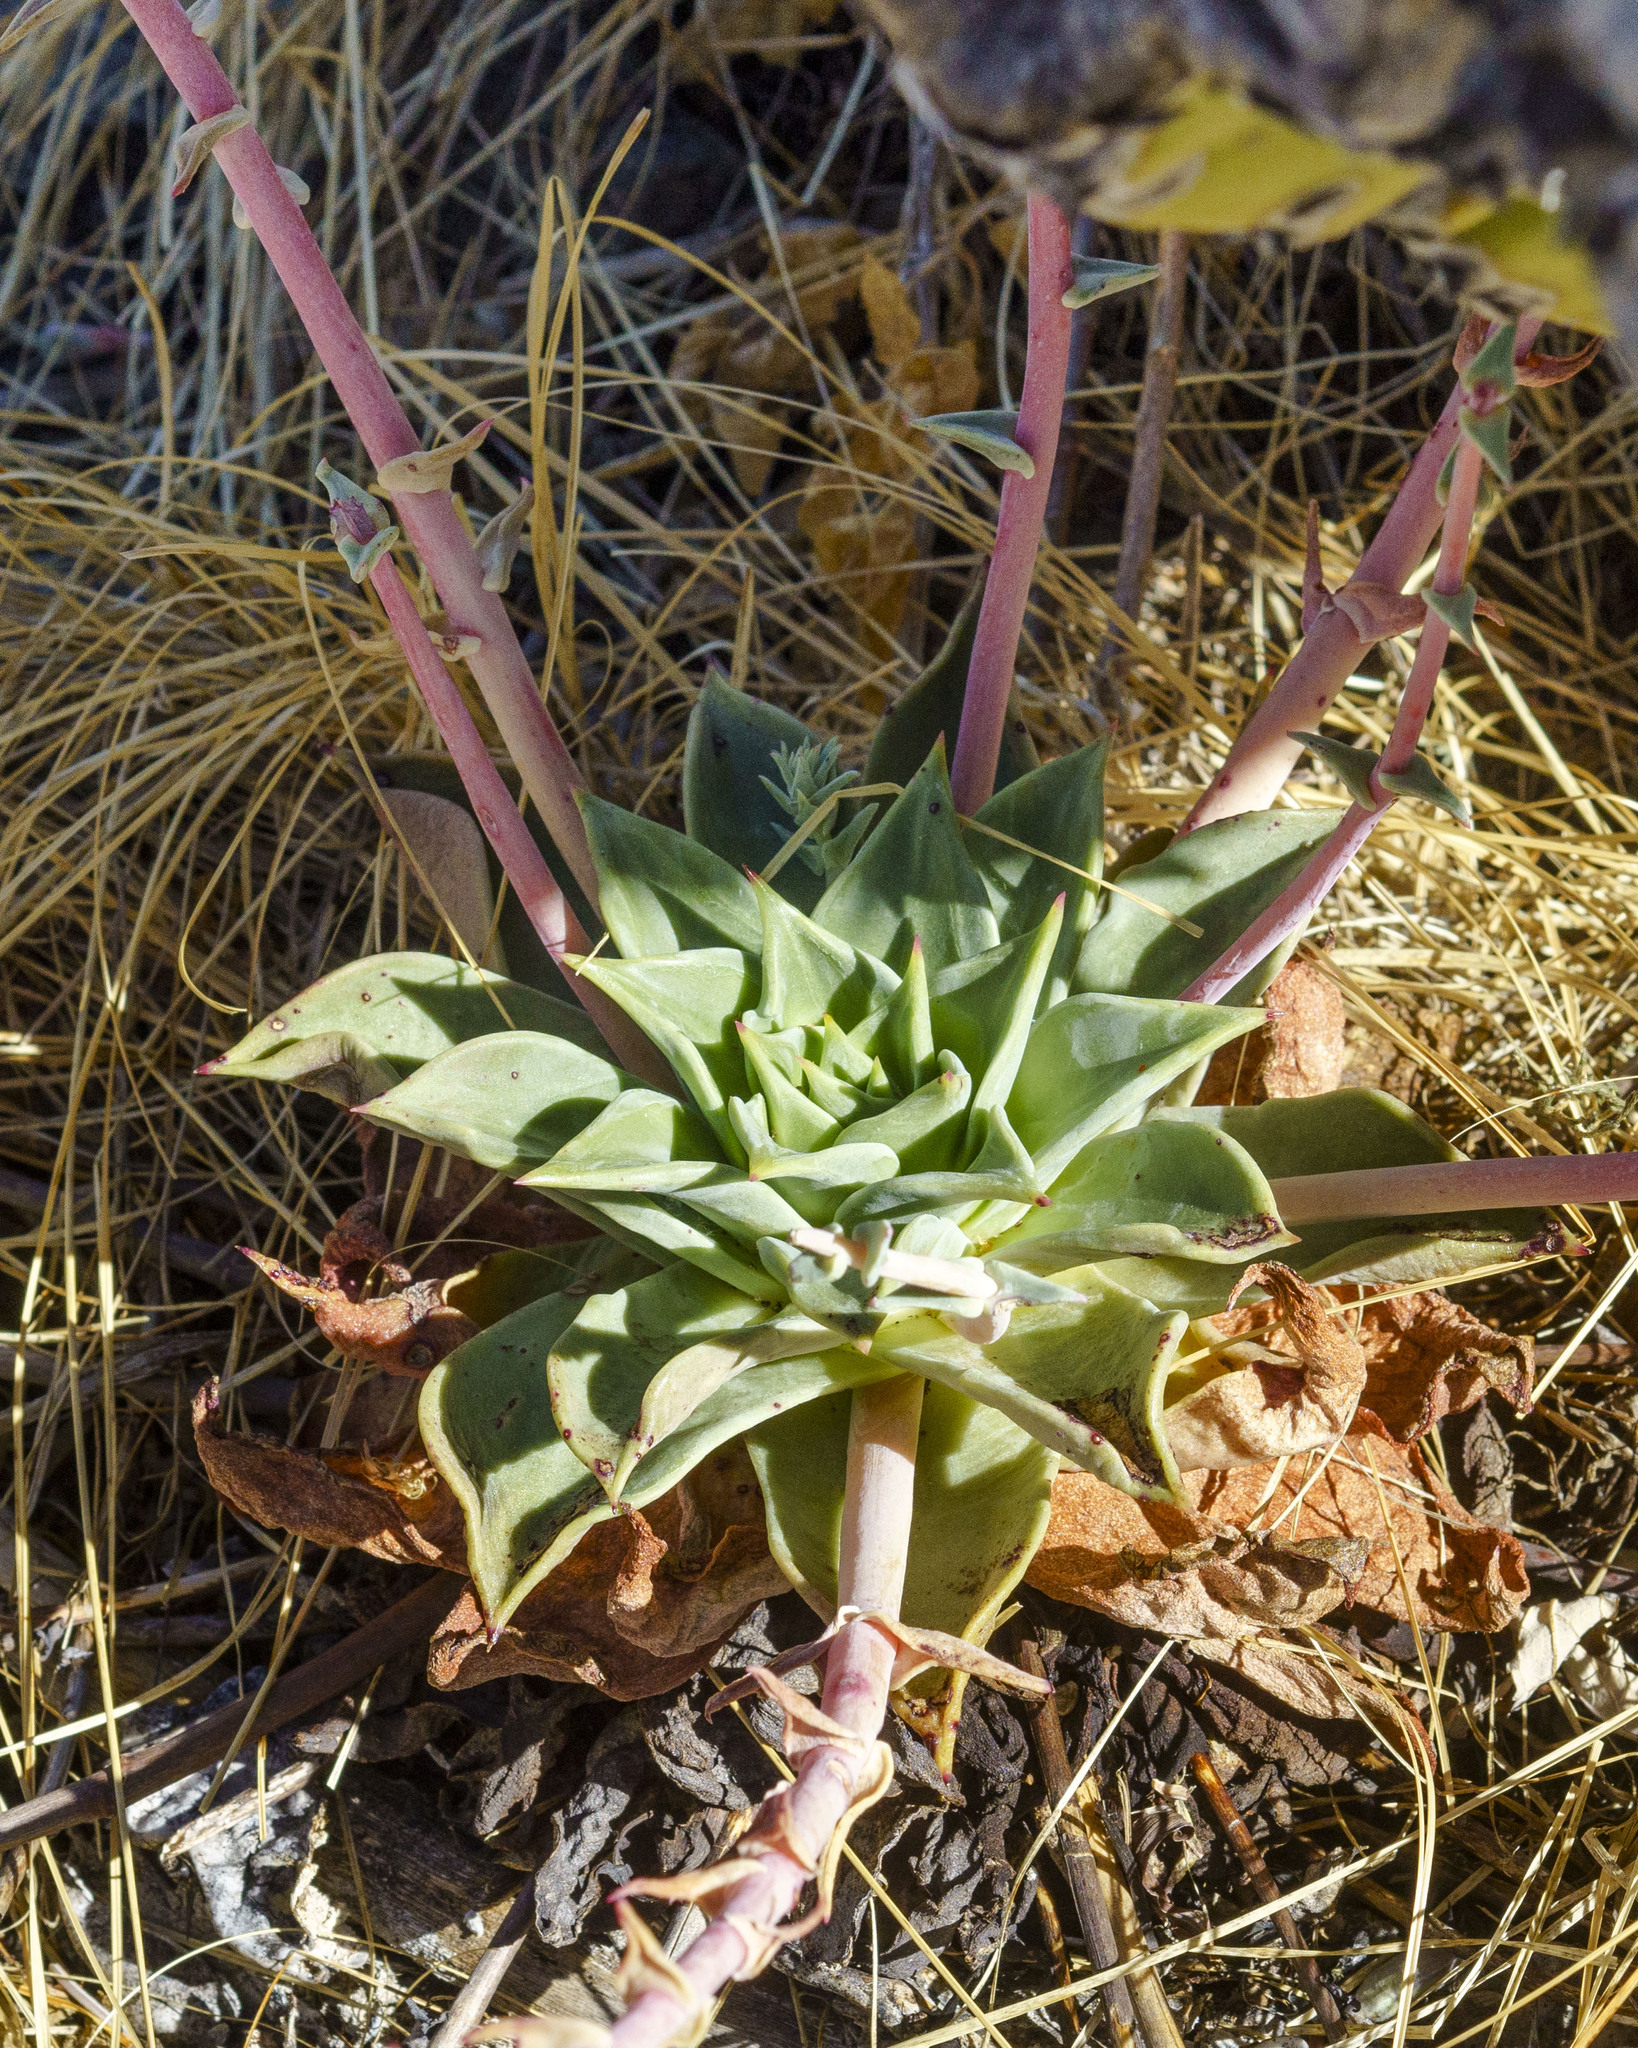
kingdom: Plantae
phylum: Tracheophyta
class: Magnoliopsida
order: Saxifragales
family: Crassulaceae
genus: Dudleya
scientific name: Dudleya rigida
